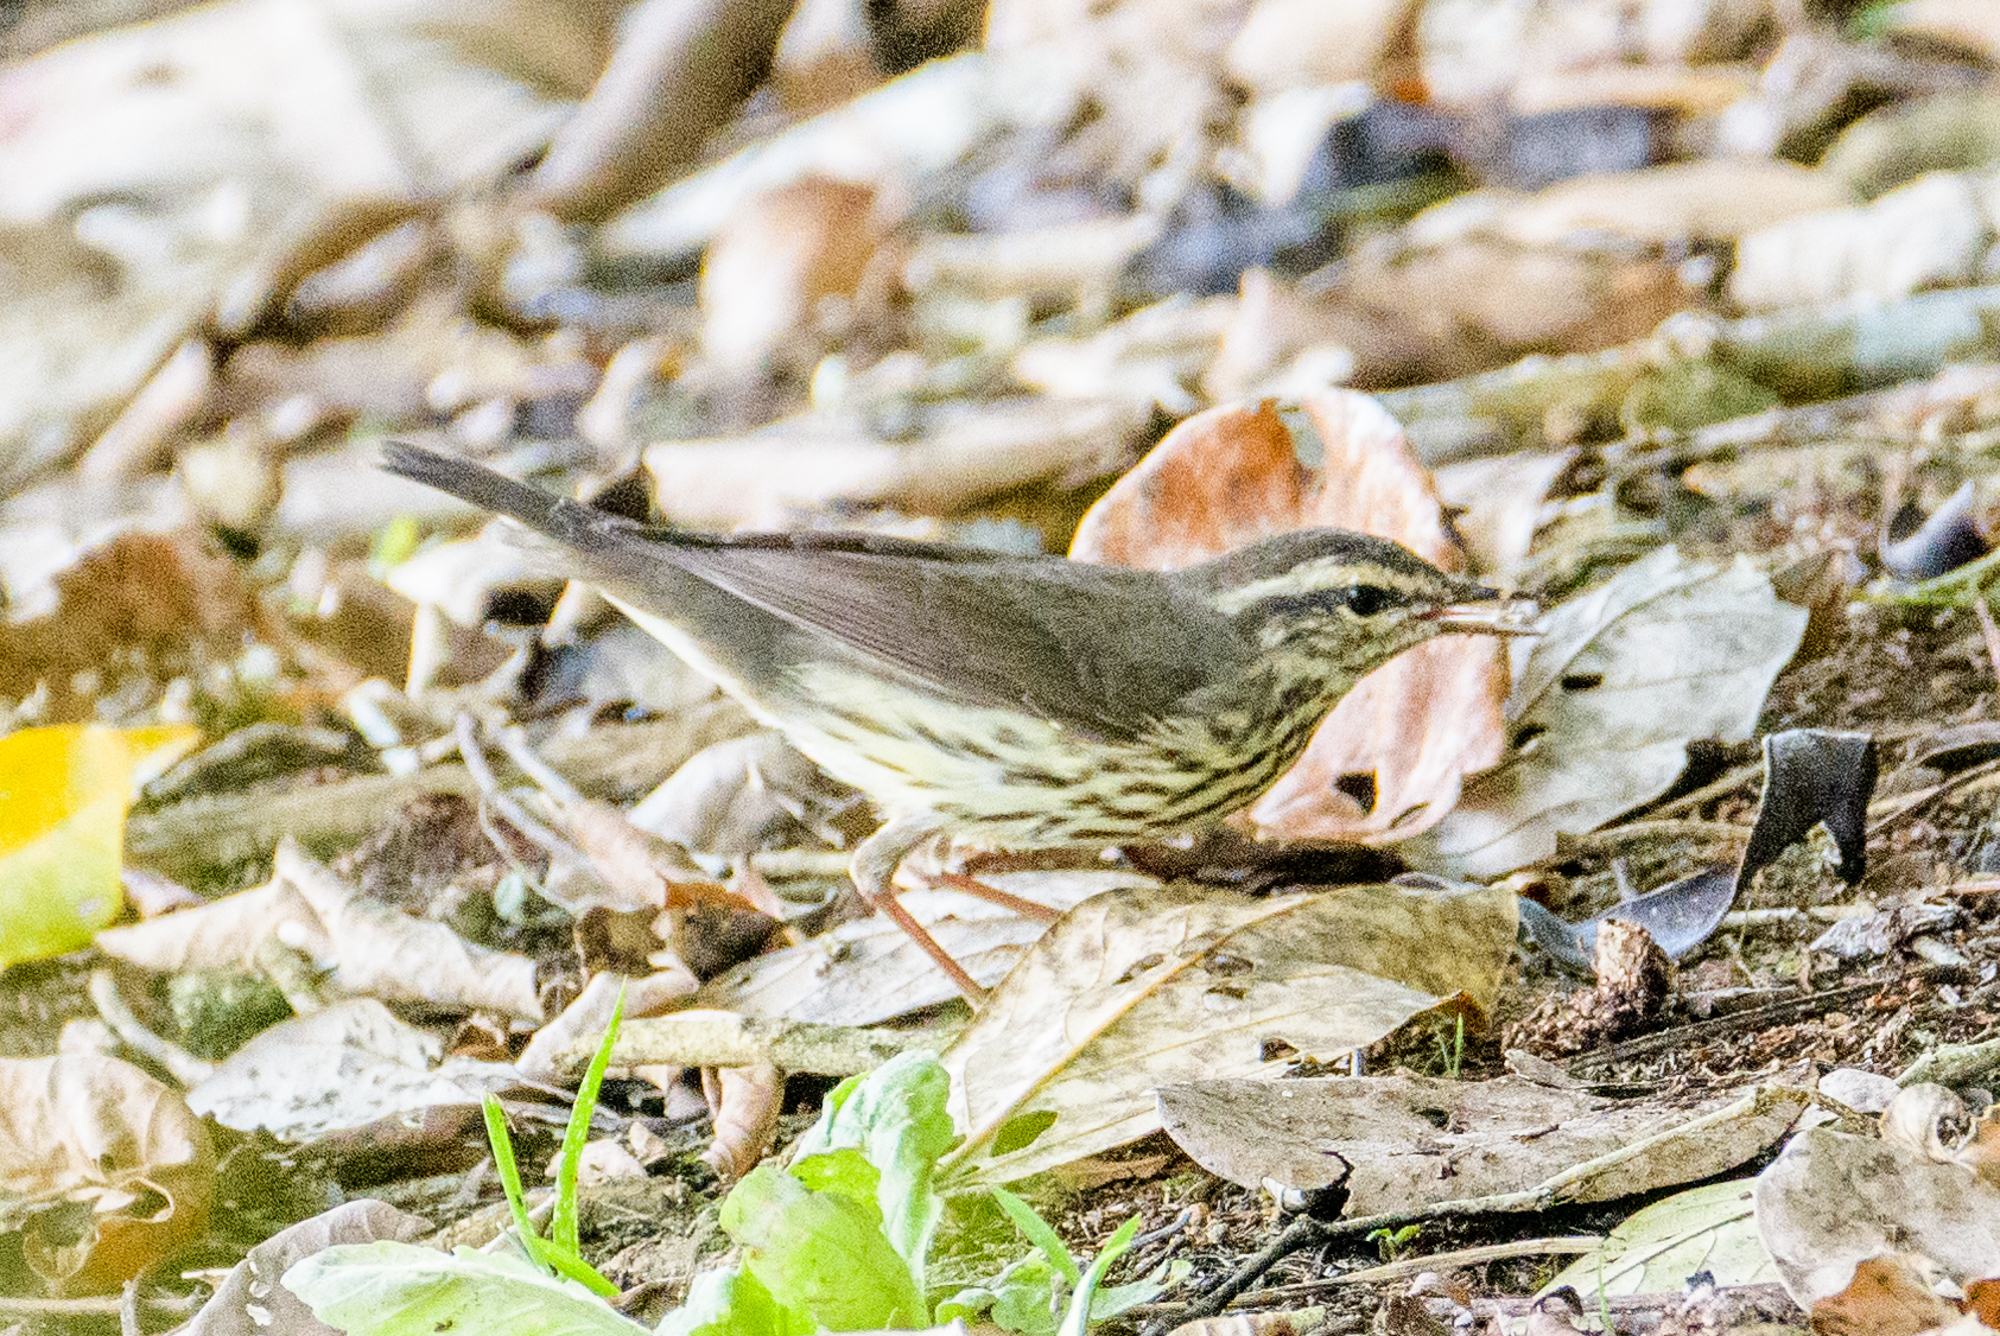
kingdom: Animalia
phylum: Chordata
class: Aves
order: Passeriformes
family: Parulidae
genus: Parkesia
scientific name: Parkesia noveboracensis
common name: Northern waterthrush
